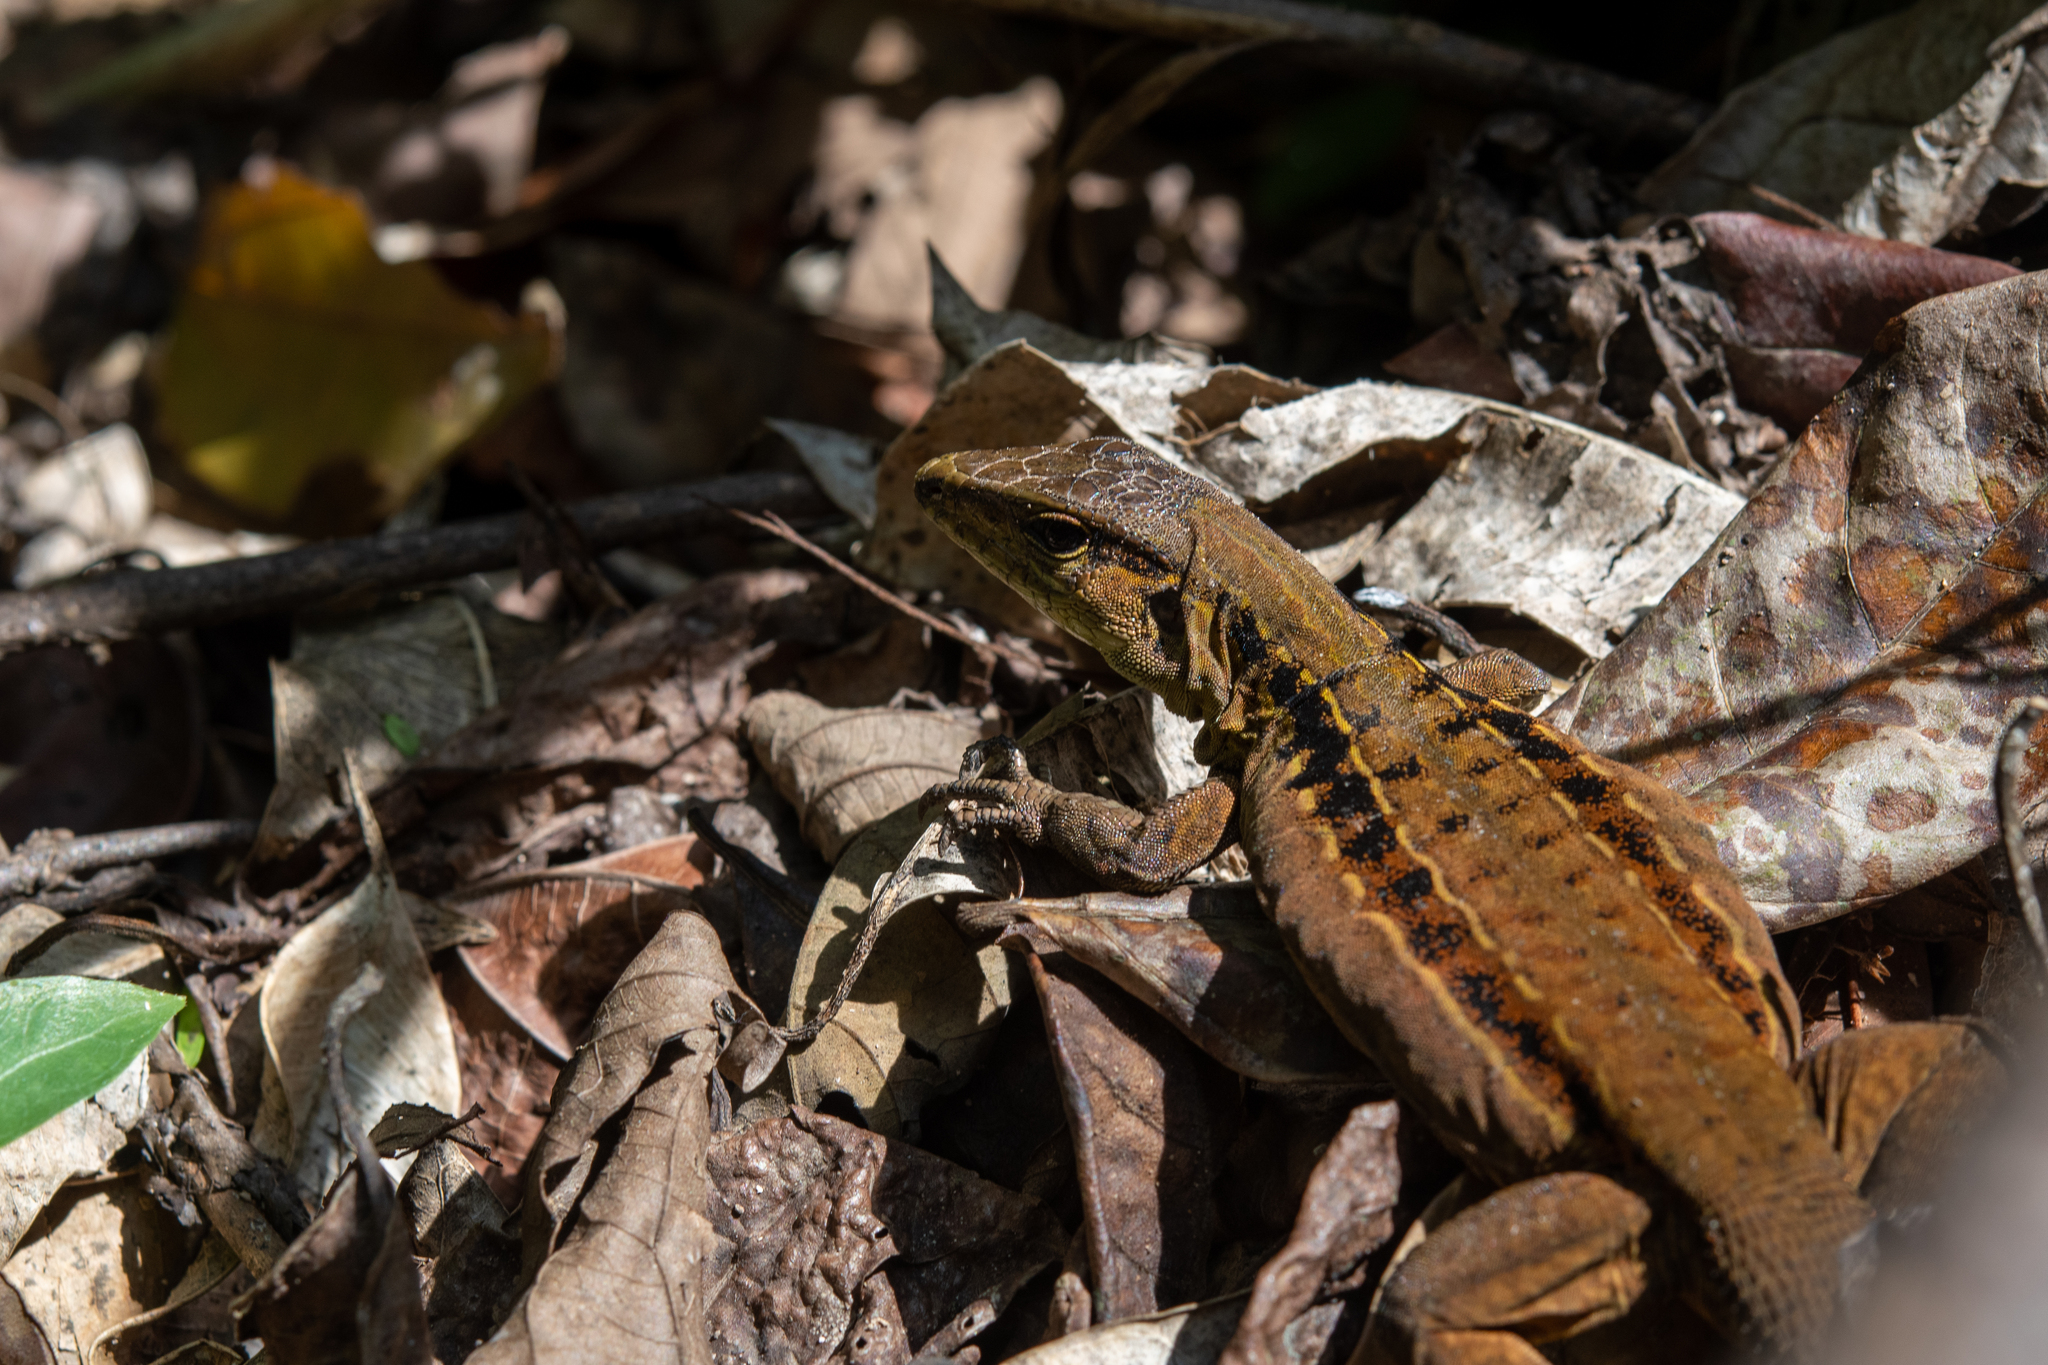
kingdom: Animalia
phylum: Chordata
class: Squamata
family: Teiidae
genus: Holcosus
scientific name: Holcosus festivus
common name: Middle american ameiva
